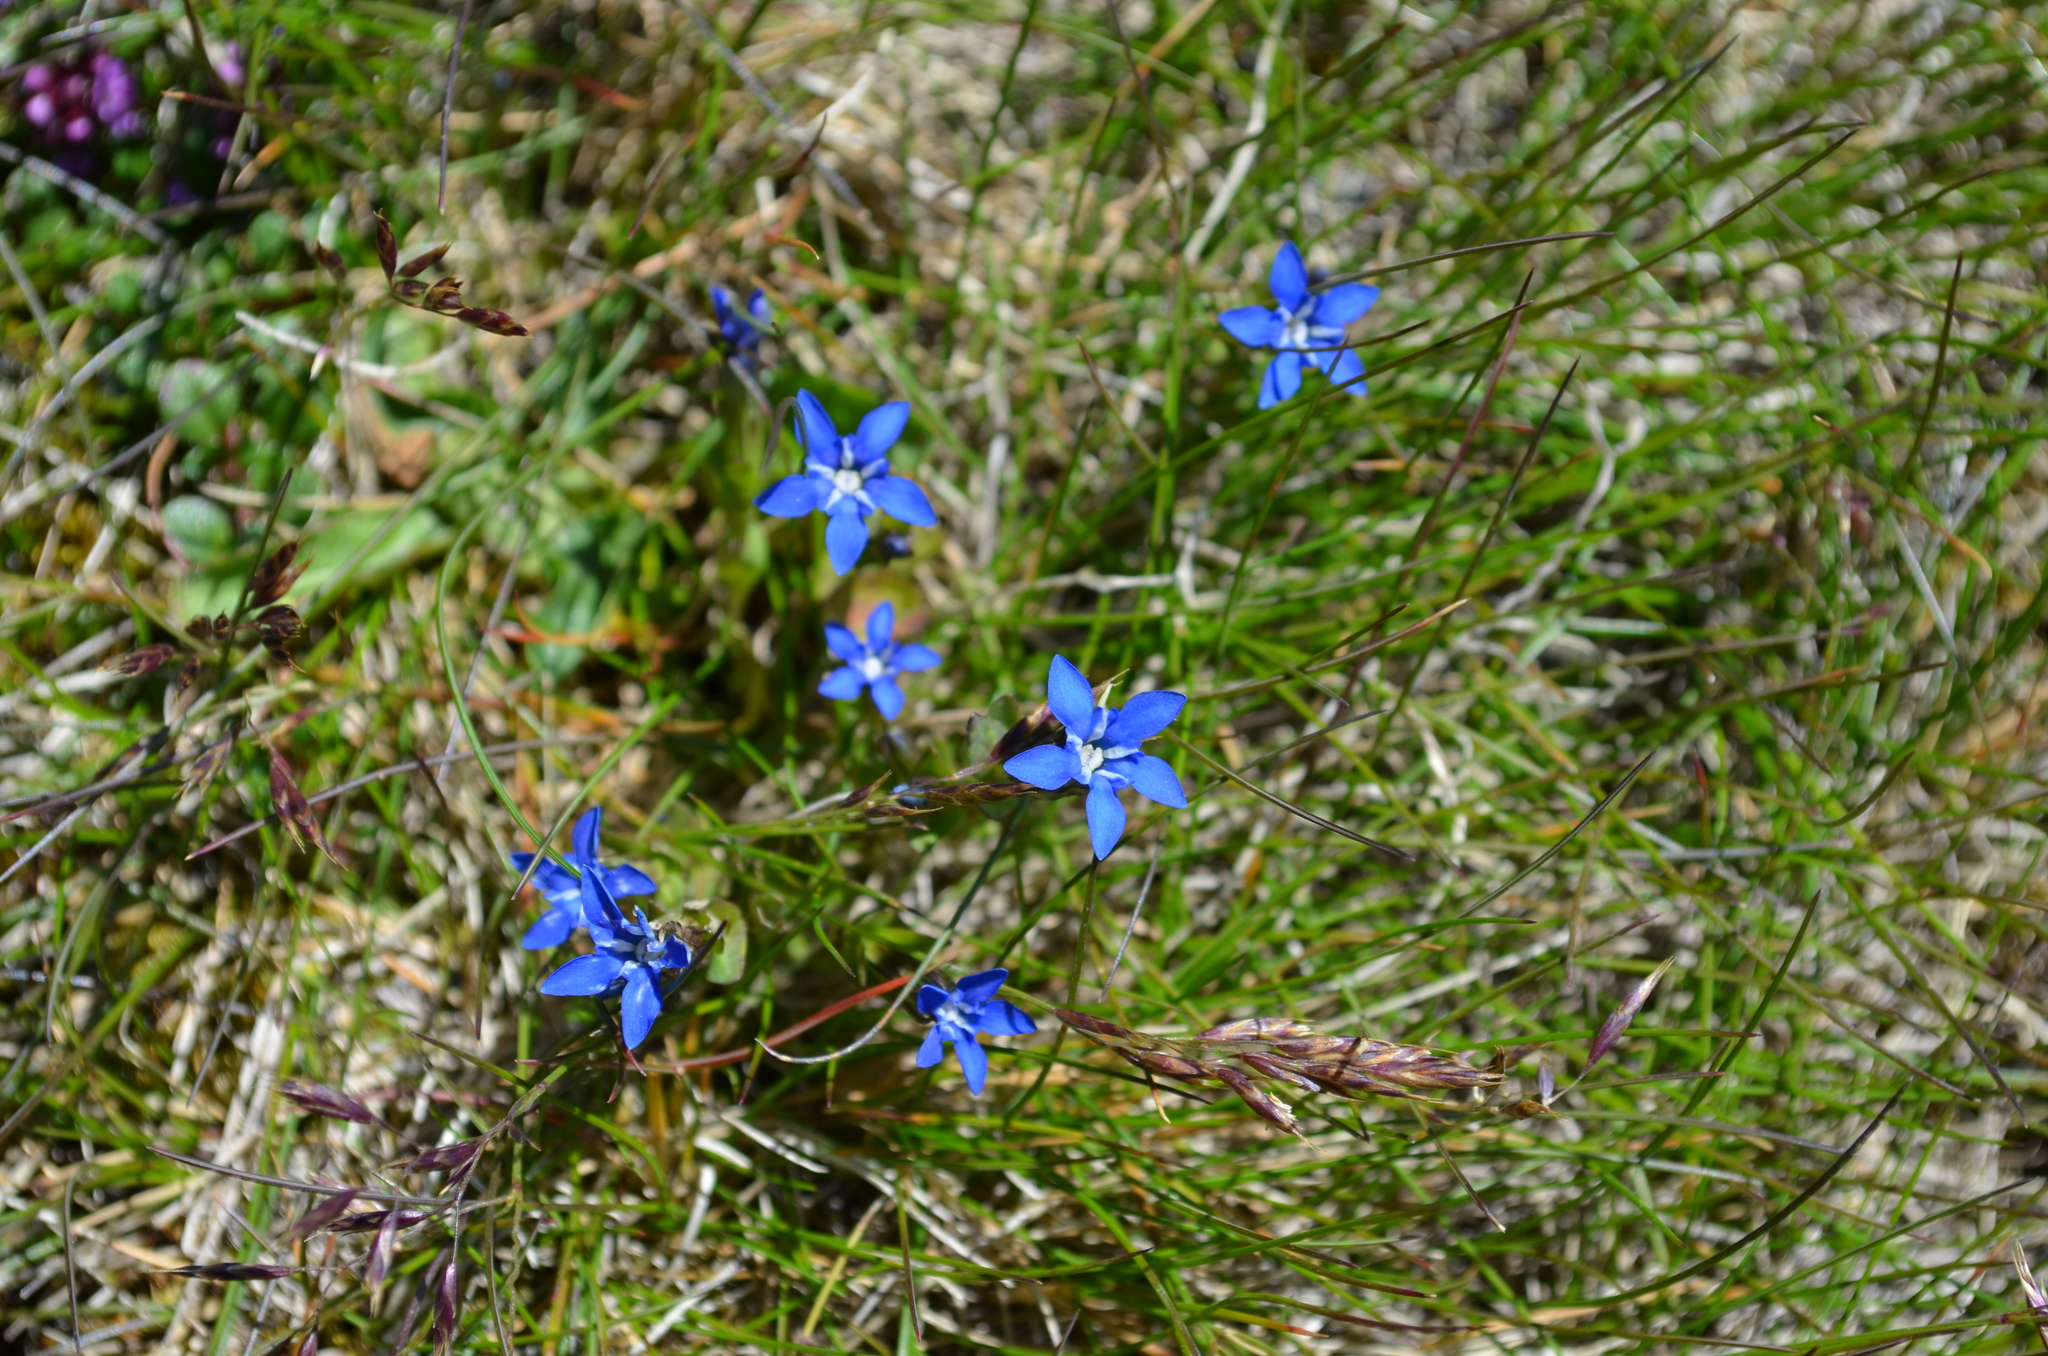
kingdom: Plantae
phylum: Tracheophyta
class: Magnoliopsida
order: Gentianales
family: Gentianaceae
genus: Gentiana
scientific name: Gentiana nivalis
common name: Alpine gentian
